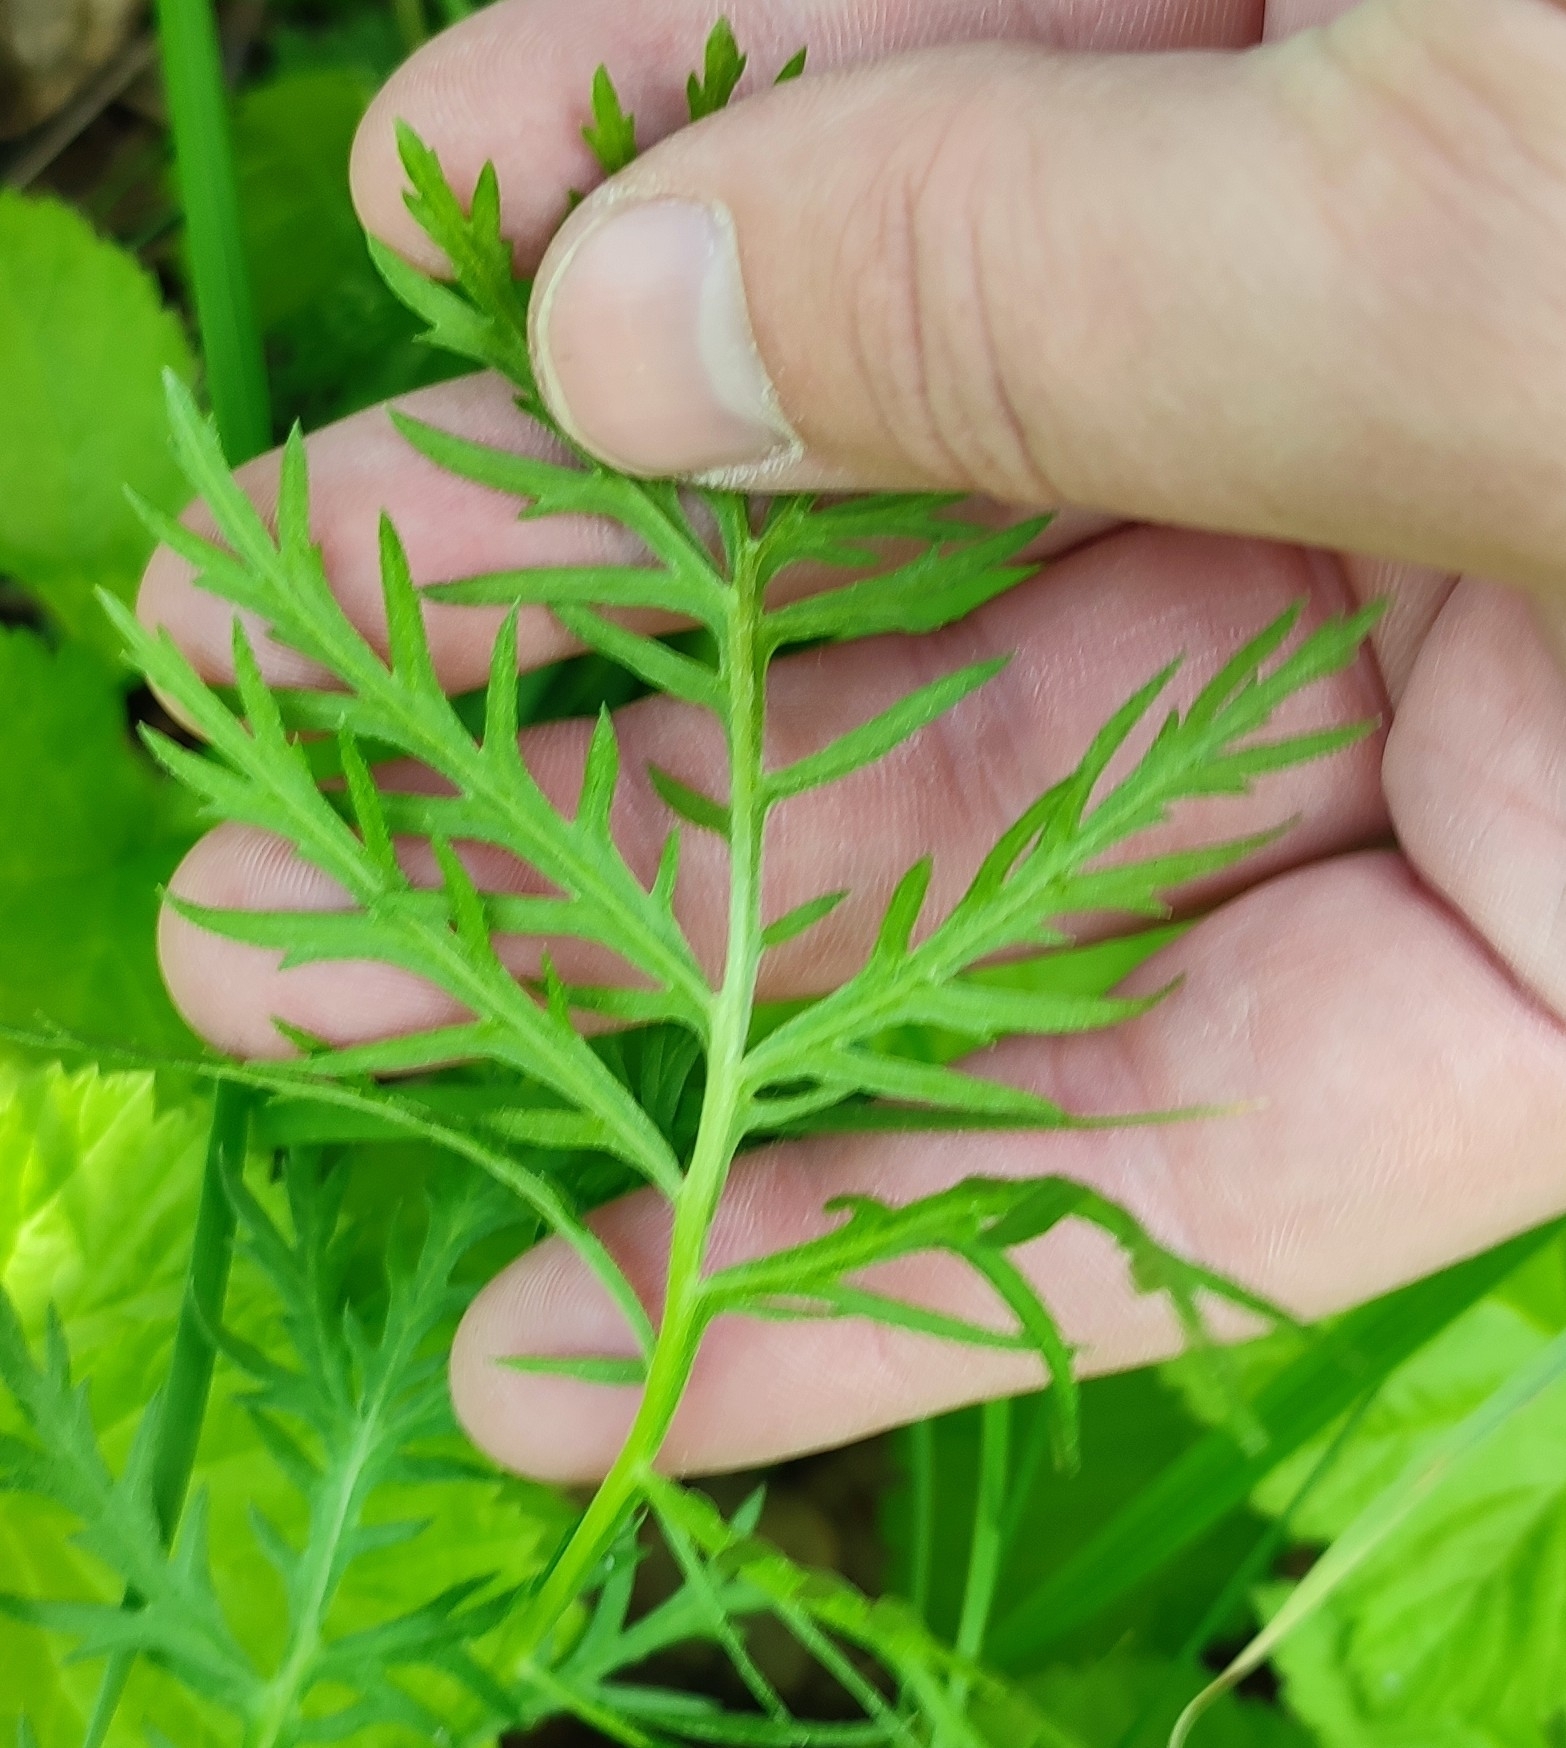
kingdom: Plantae
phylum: Tracheophyta
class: Magnoliopsida
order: Asterales
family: Asteraceae
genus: Artemisia
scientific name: Artemisia latifolia
